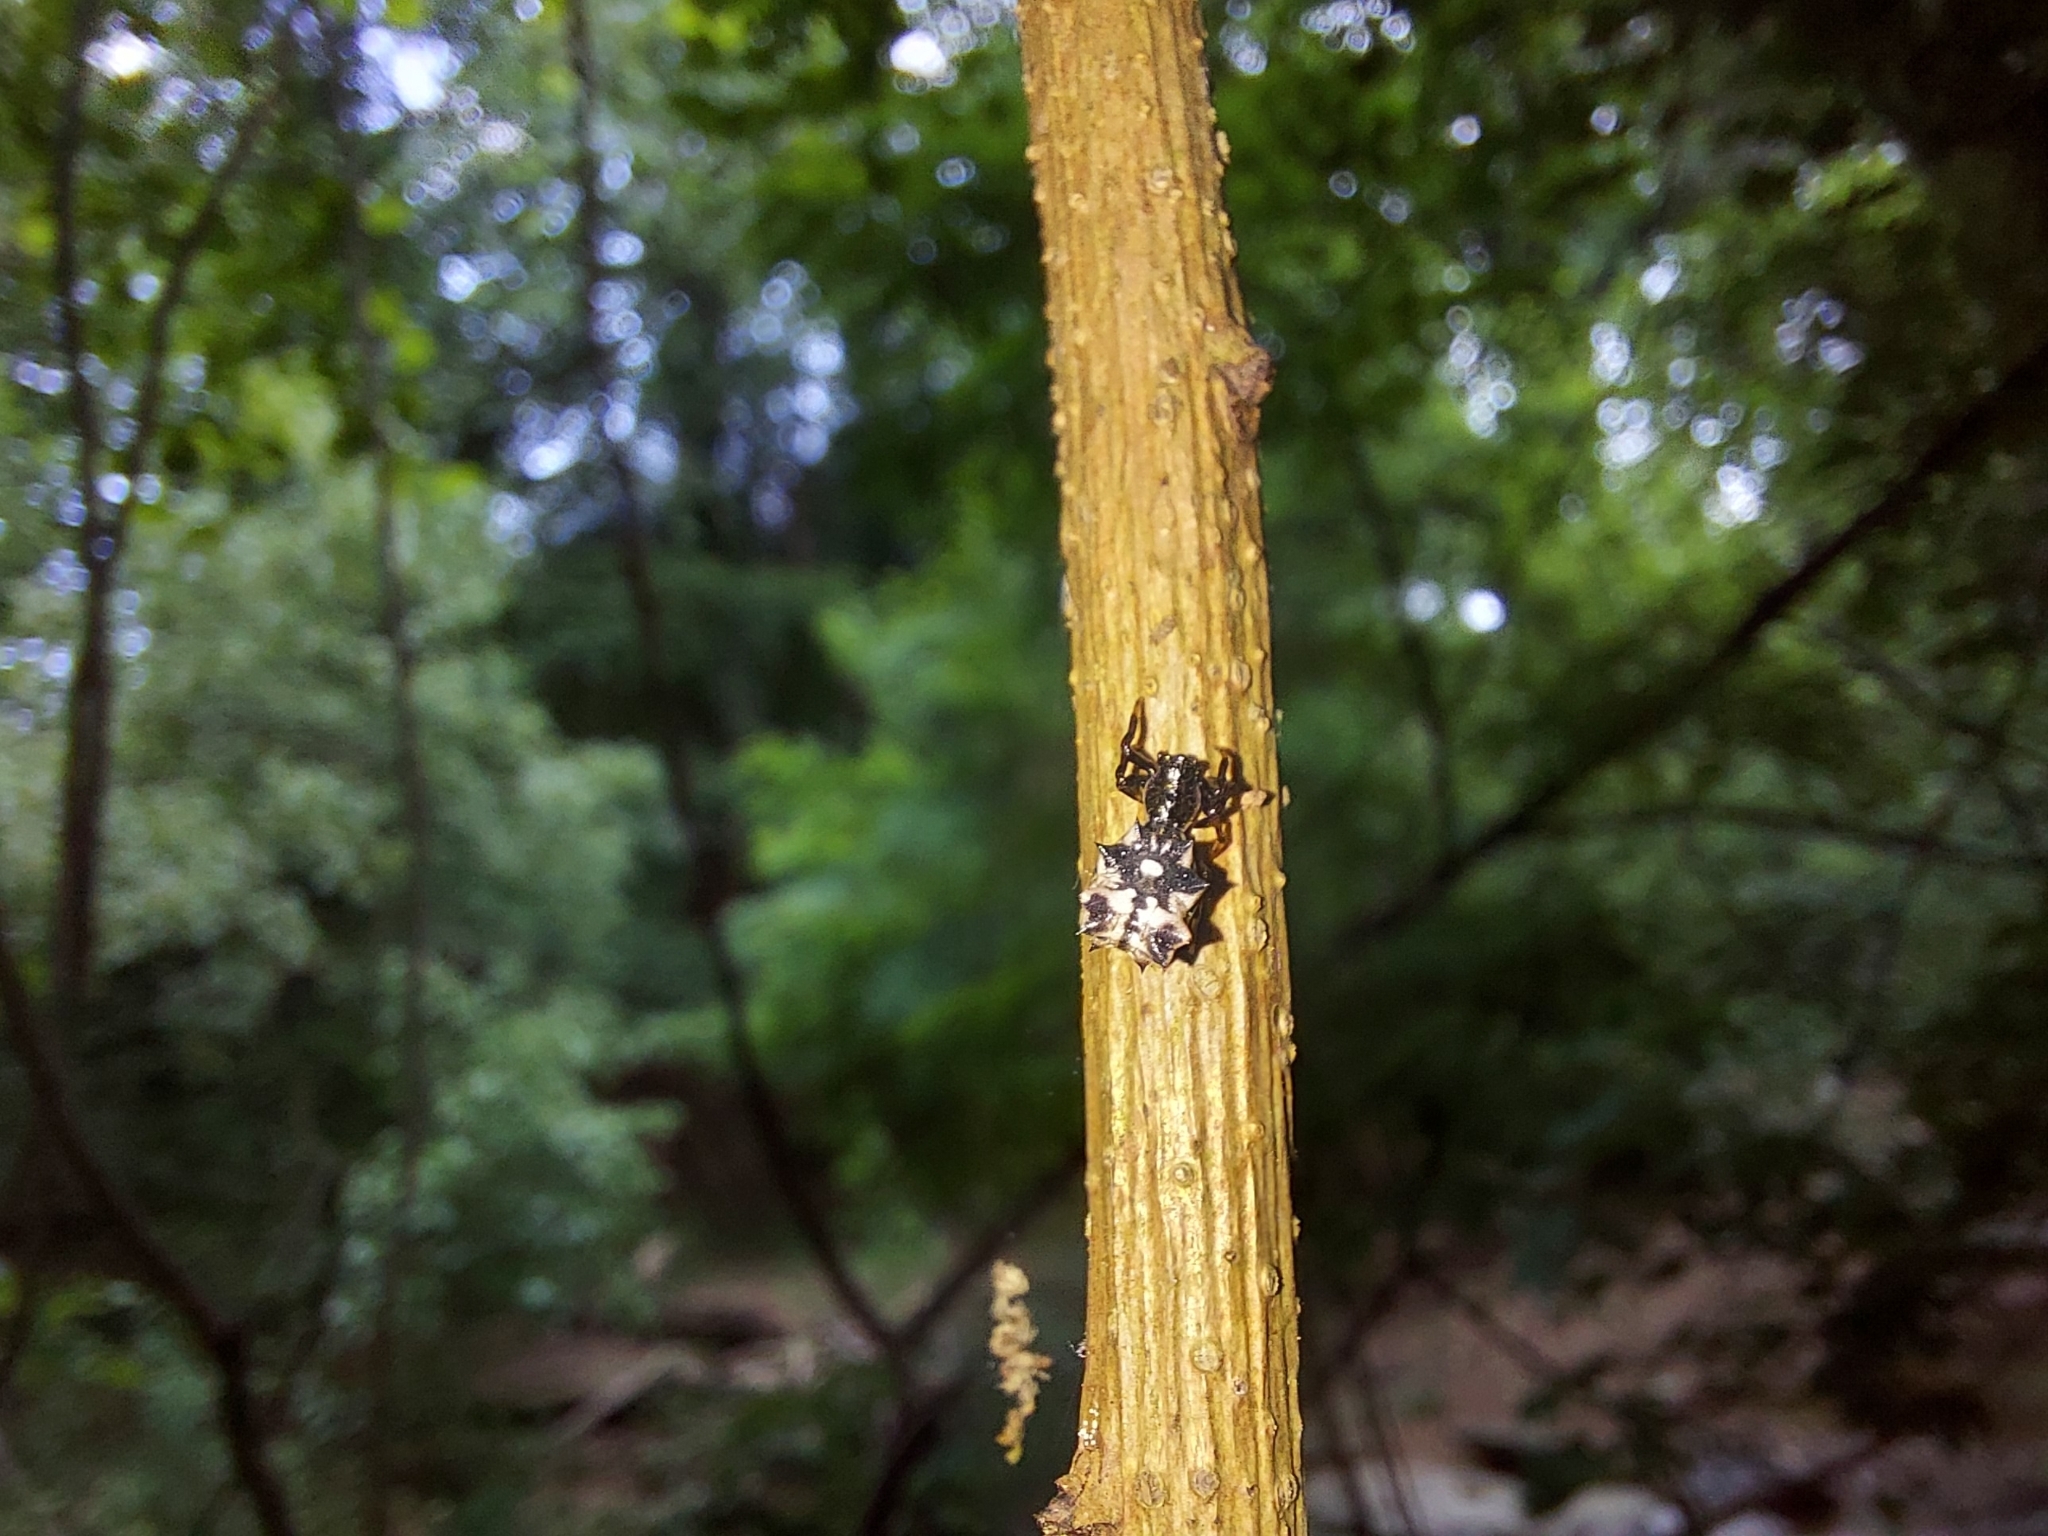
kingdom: Animalia
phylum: Arthropoda
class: Arachnida
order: Araneae
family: Araneidae
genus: Micrathena
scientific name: Micrathena gracilis
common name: Orb weavers
